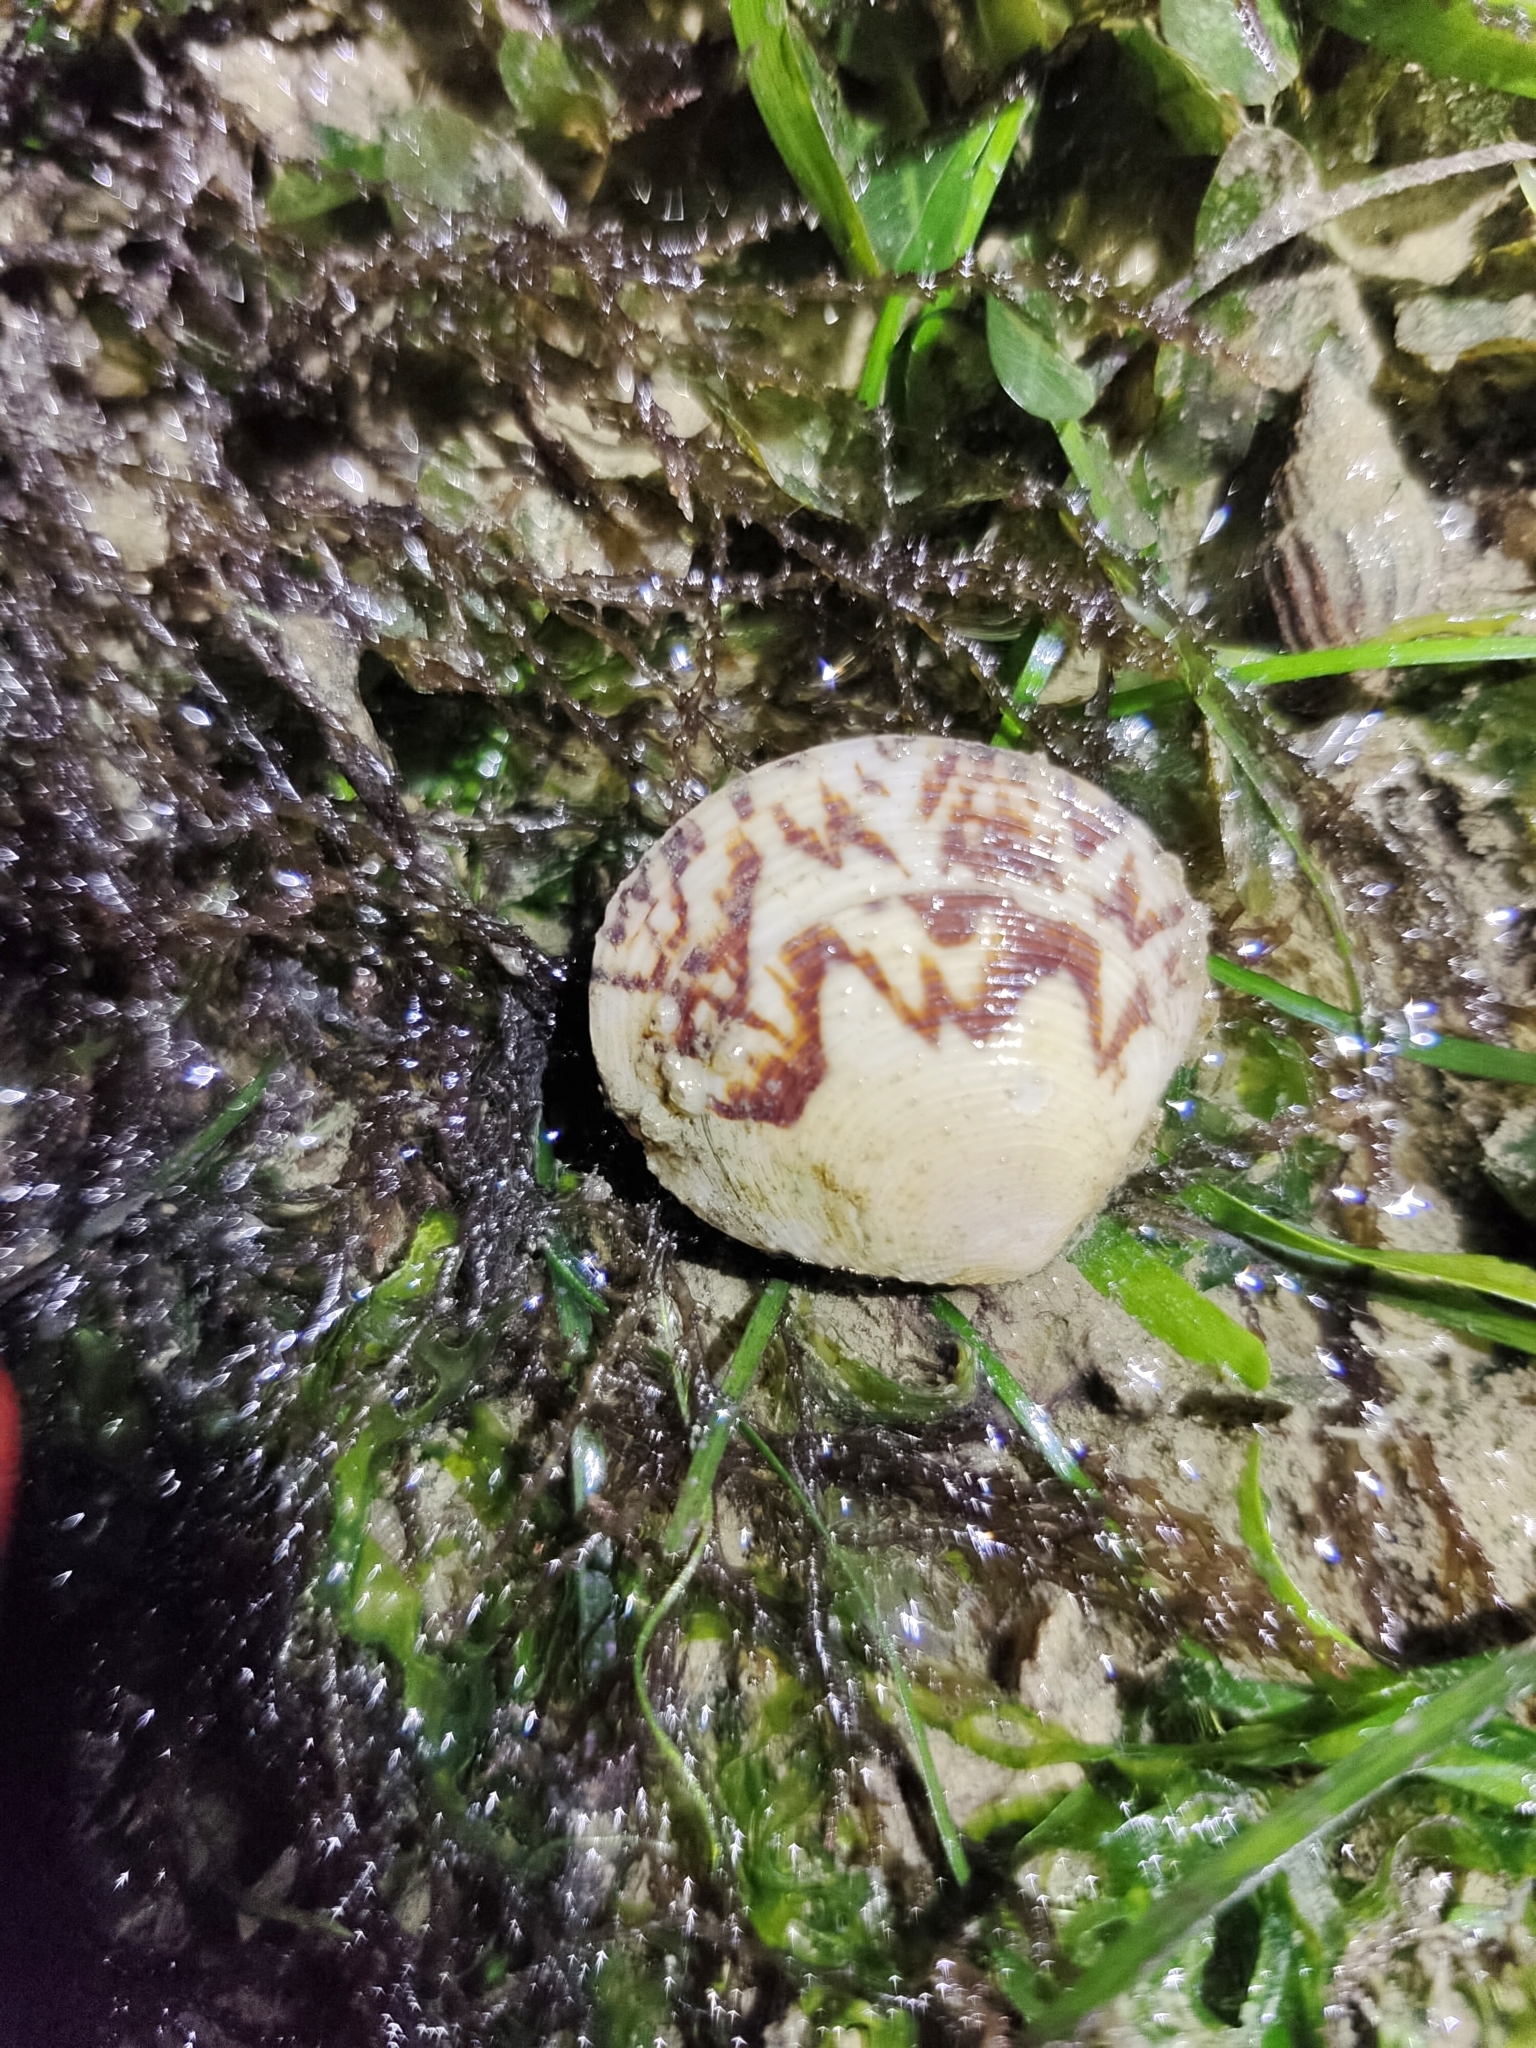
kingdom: Animalia
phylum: Mollusca
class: Bivalvia
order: Venerida
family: Veneridae
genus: Circe
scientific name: Circe scripta
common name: Script venus
